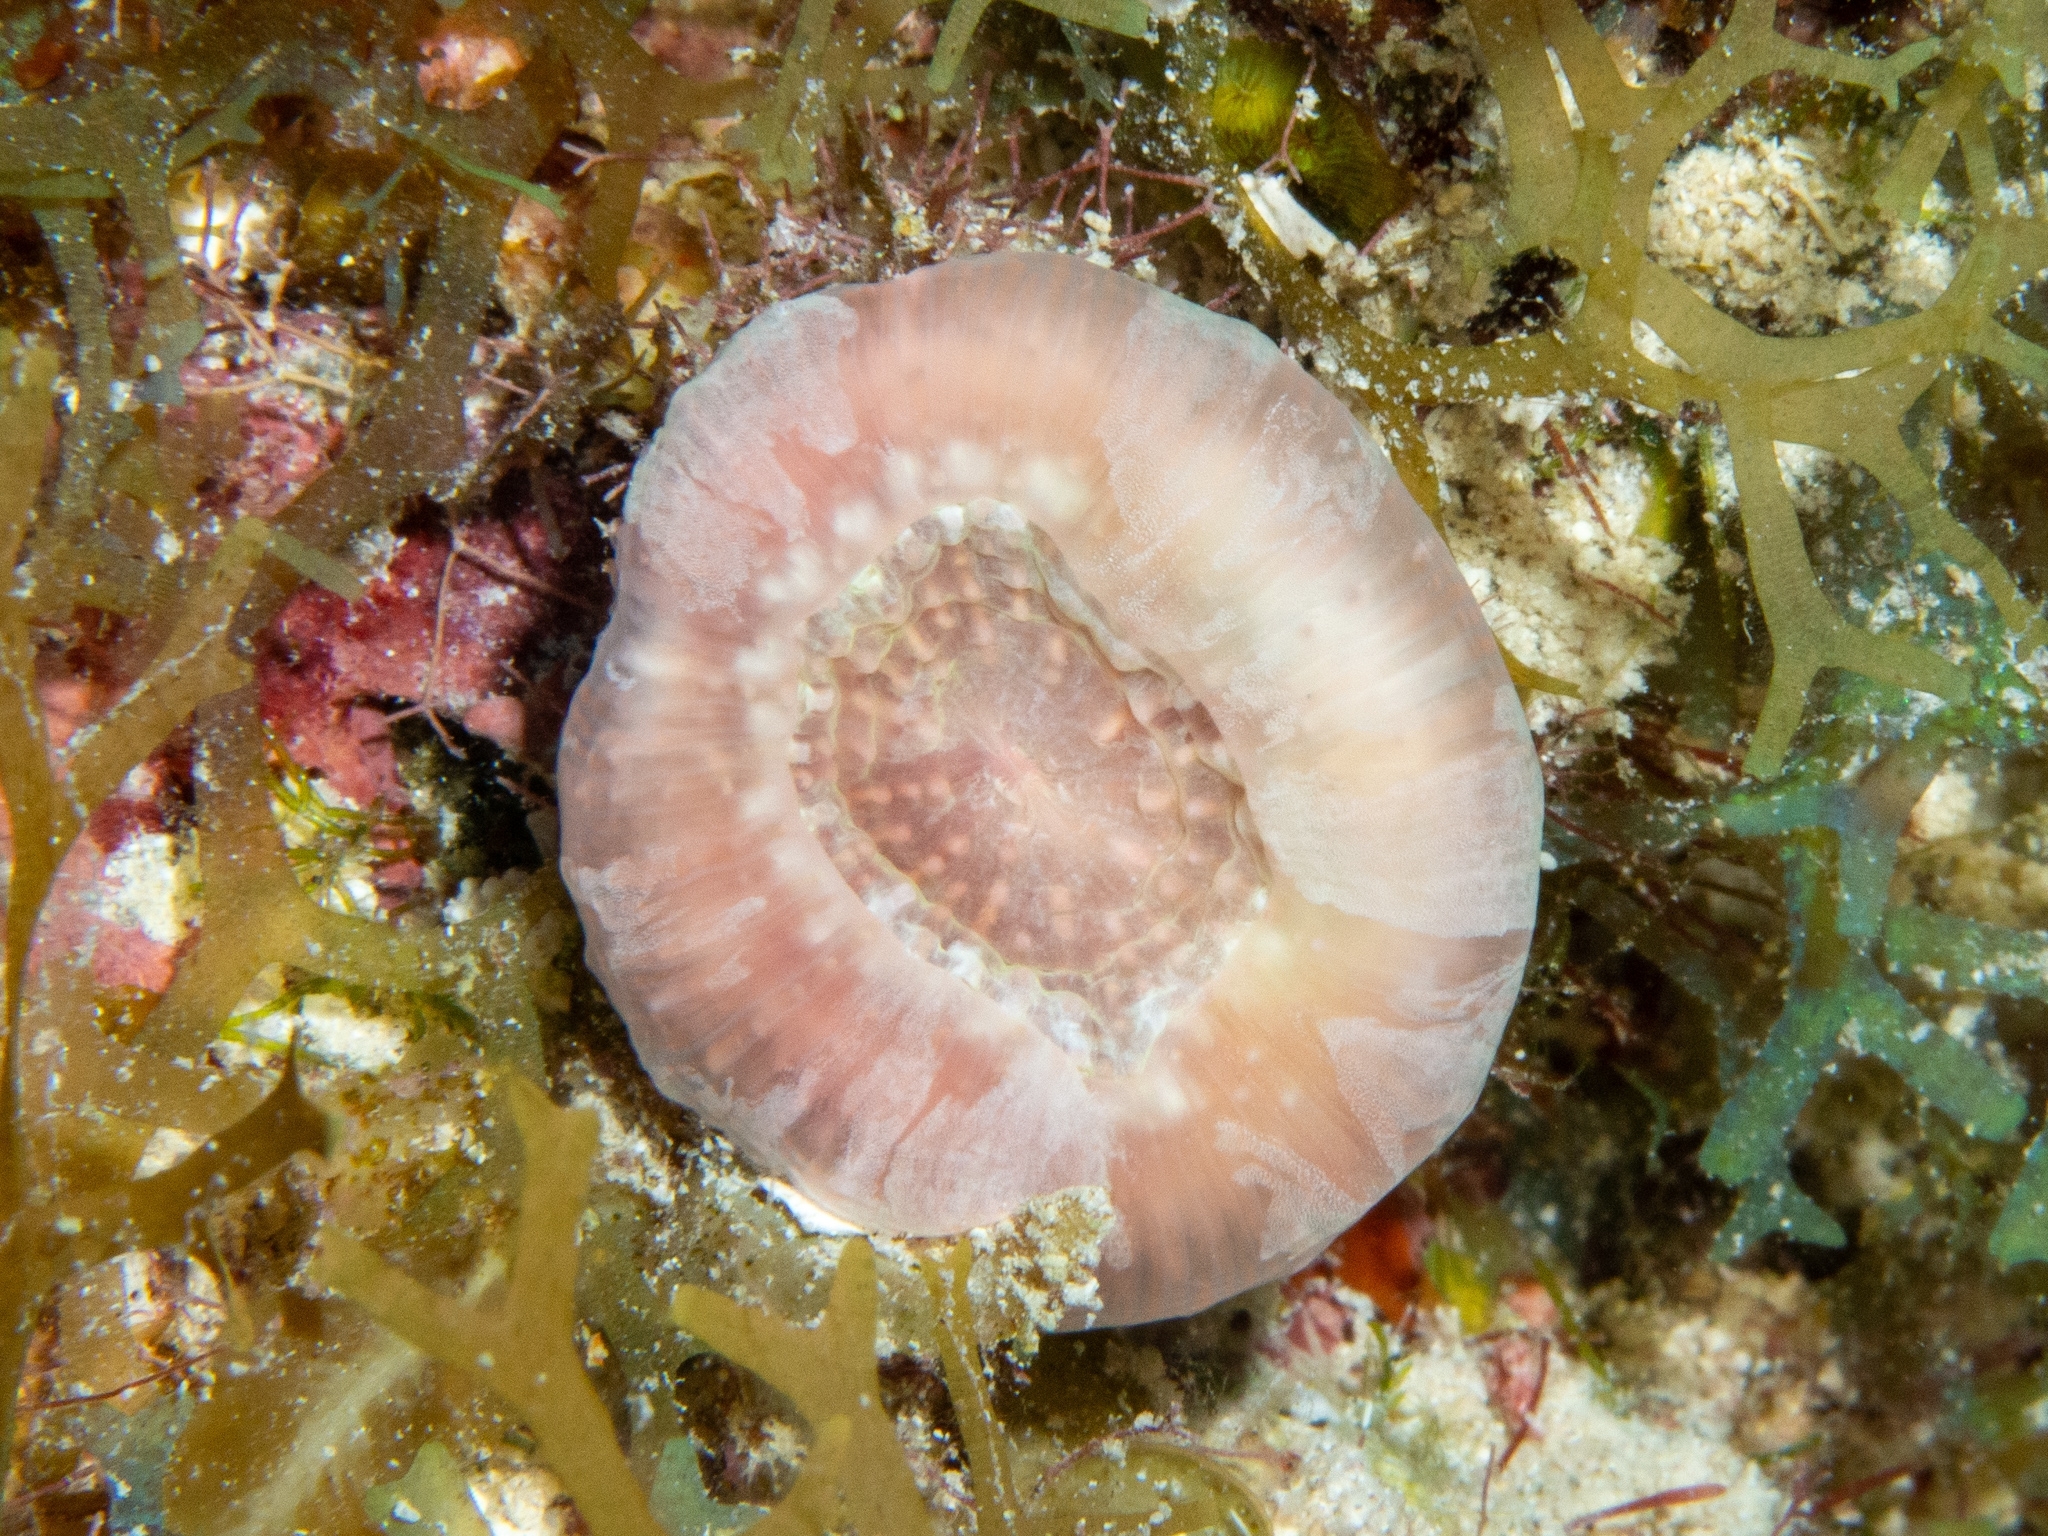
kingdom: Animalia
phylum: Cnidaria
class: Anthozoa
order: Scleractinia
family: Faviidae
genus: Scolymia
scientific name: Scolymia cubensis
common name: Artichoke coral
